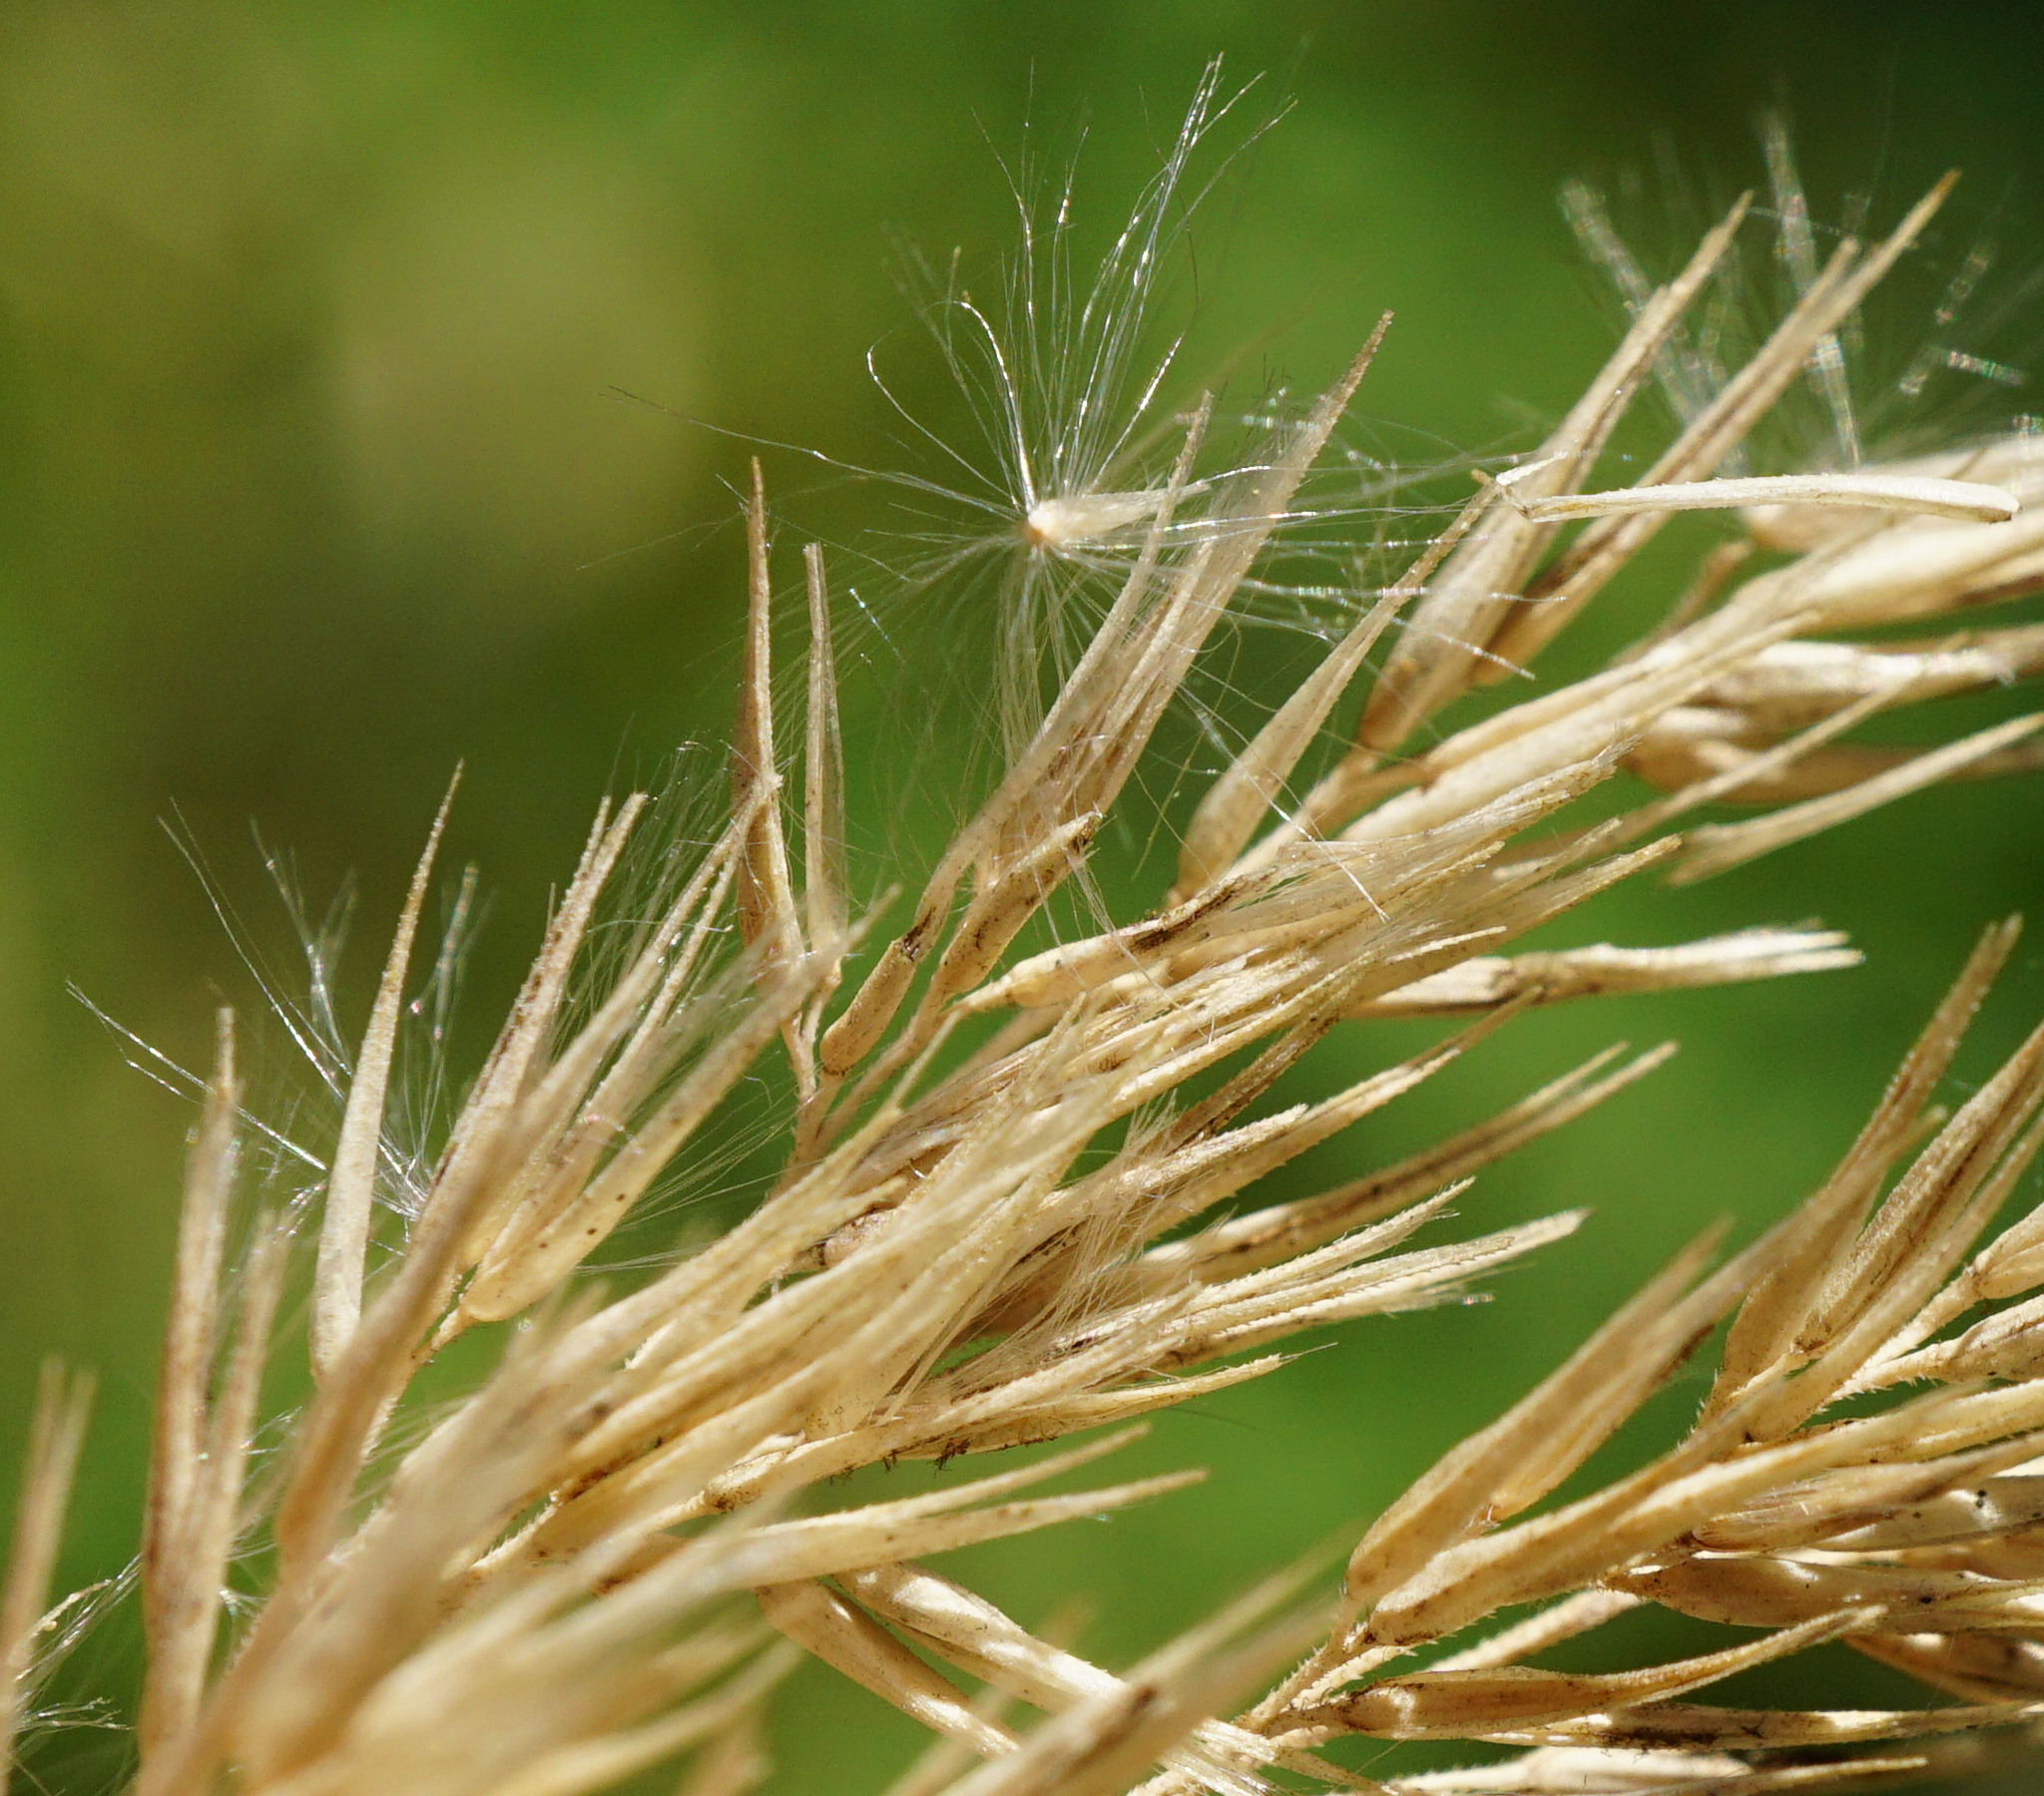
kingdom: Plantae
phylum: Tracheophyta
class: Liliopsida
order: Poales
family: Poaceae
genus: Calamagrostis
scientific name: Calamagrostis epigejos
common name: Wood small-reed
